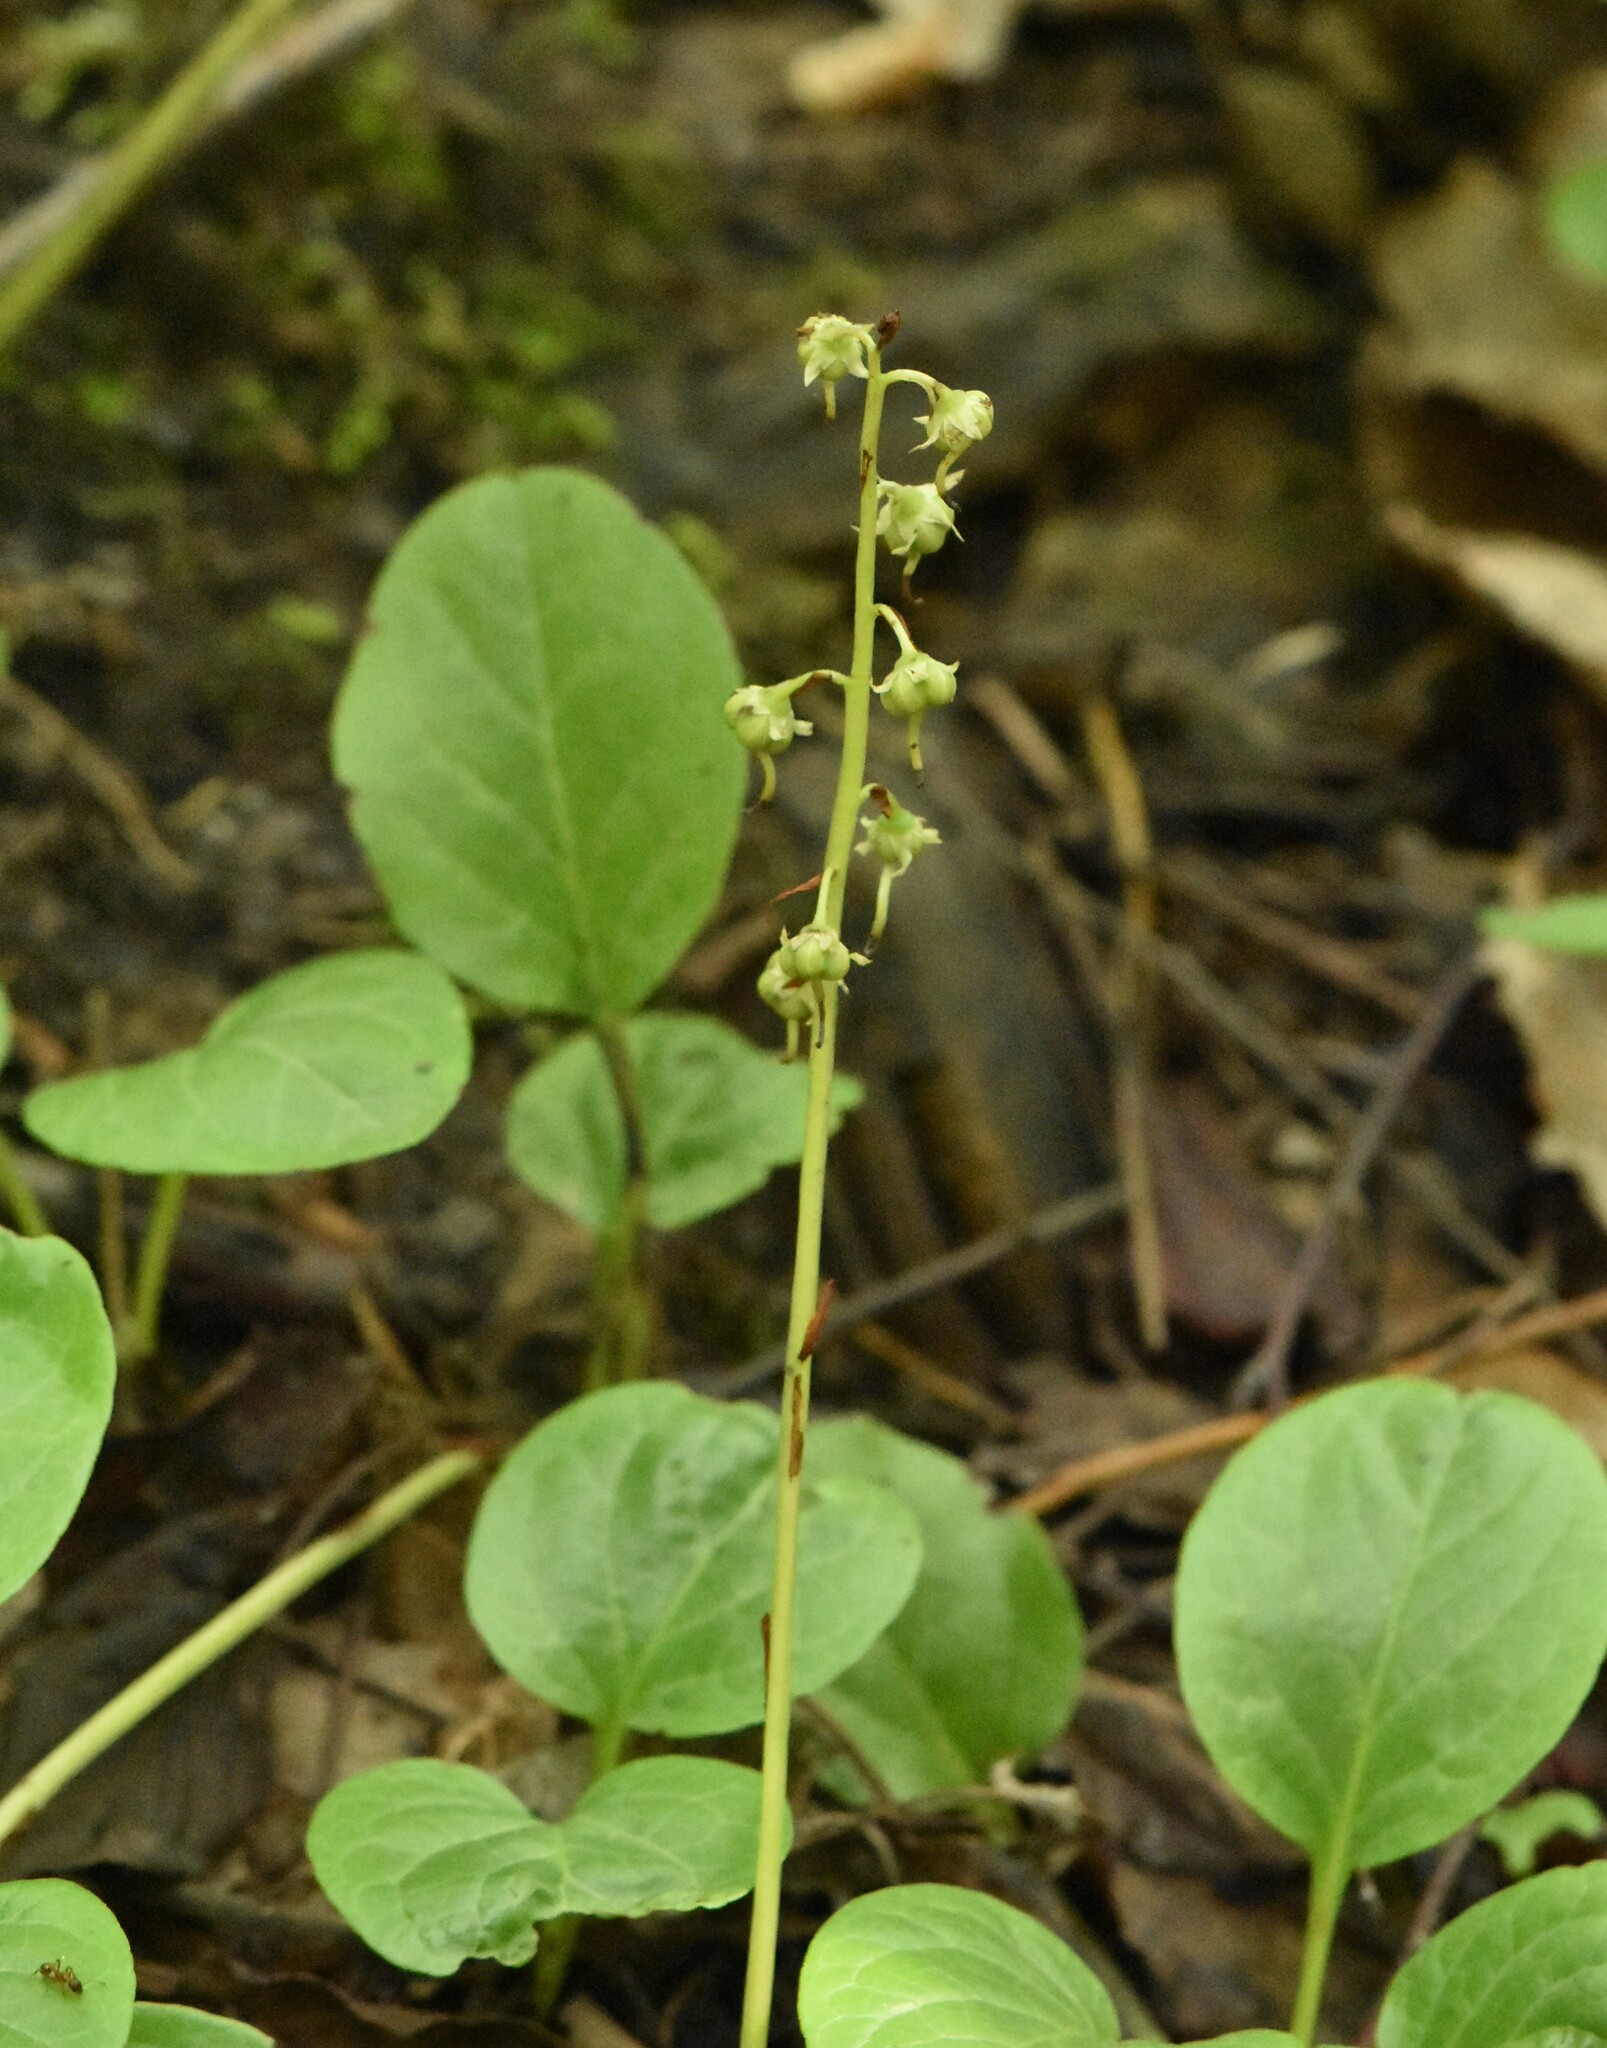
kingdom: Plantae
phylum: Tracheophyta
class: Magnoliopsida
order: Ericales
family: Ericaceae
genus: Pyrola
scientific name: Pyrola rotundifolia
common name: Round-leaved wintergreen
